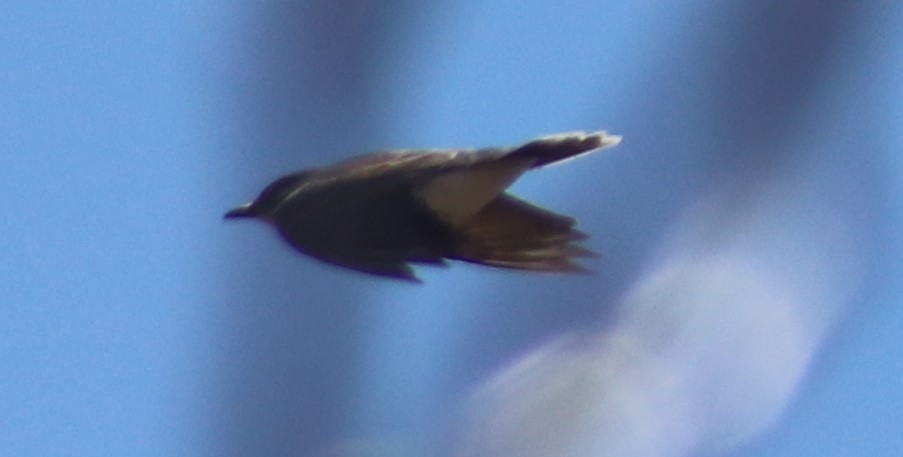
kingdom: Animalia
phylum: Chordata
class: Aves
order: Passeriformes
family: Tyrannidae
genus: Tyrannus
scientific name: Tyrannus tyrannus
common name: Eastern kingbird
